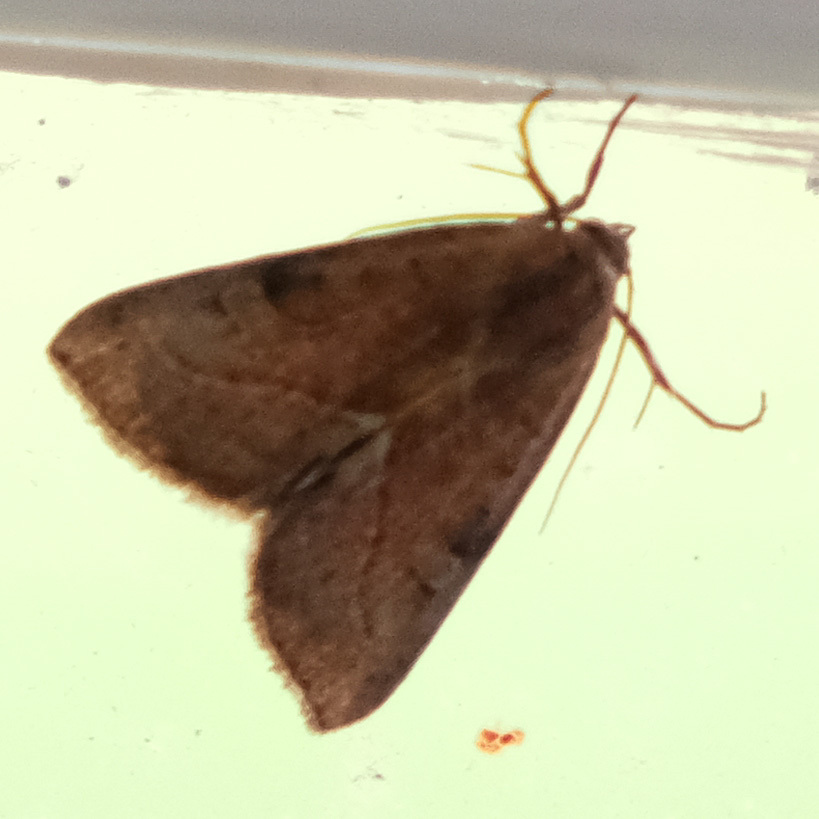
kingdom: Animalia
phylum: Arthropoda
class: Insecta
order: Lepidoptera
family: Noctuidae
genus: Galgula
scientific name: Galgula partita
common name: Wedgeling
